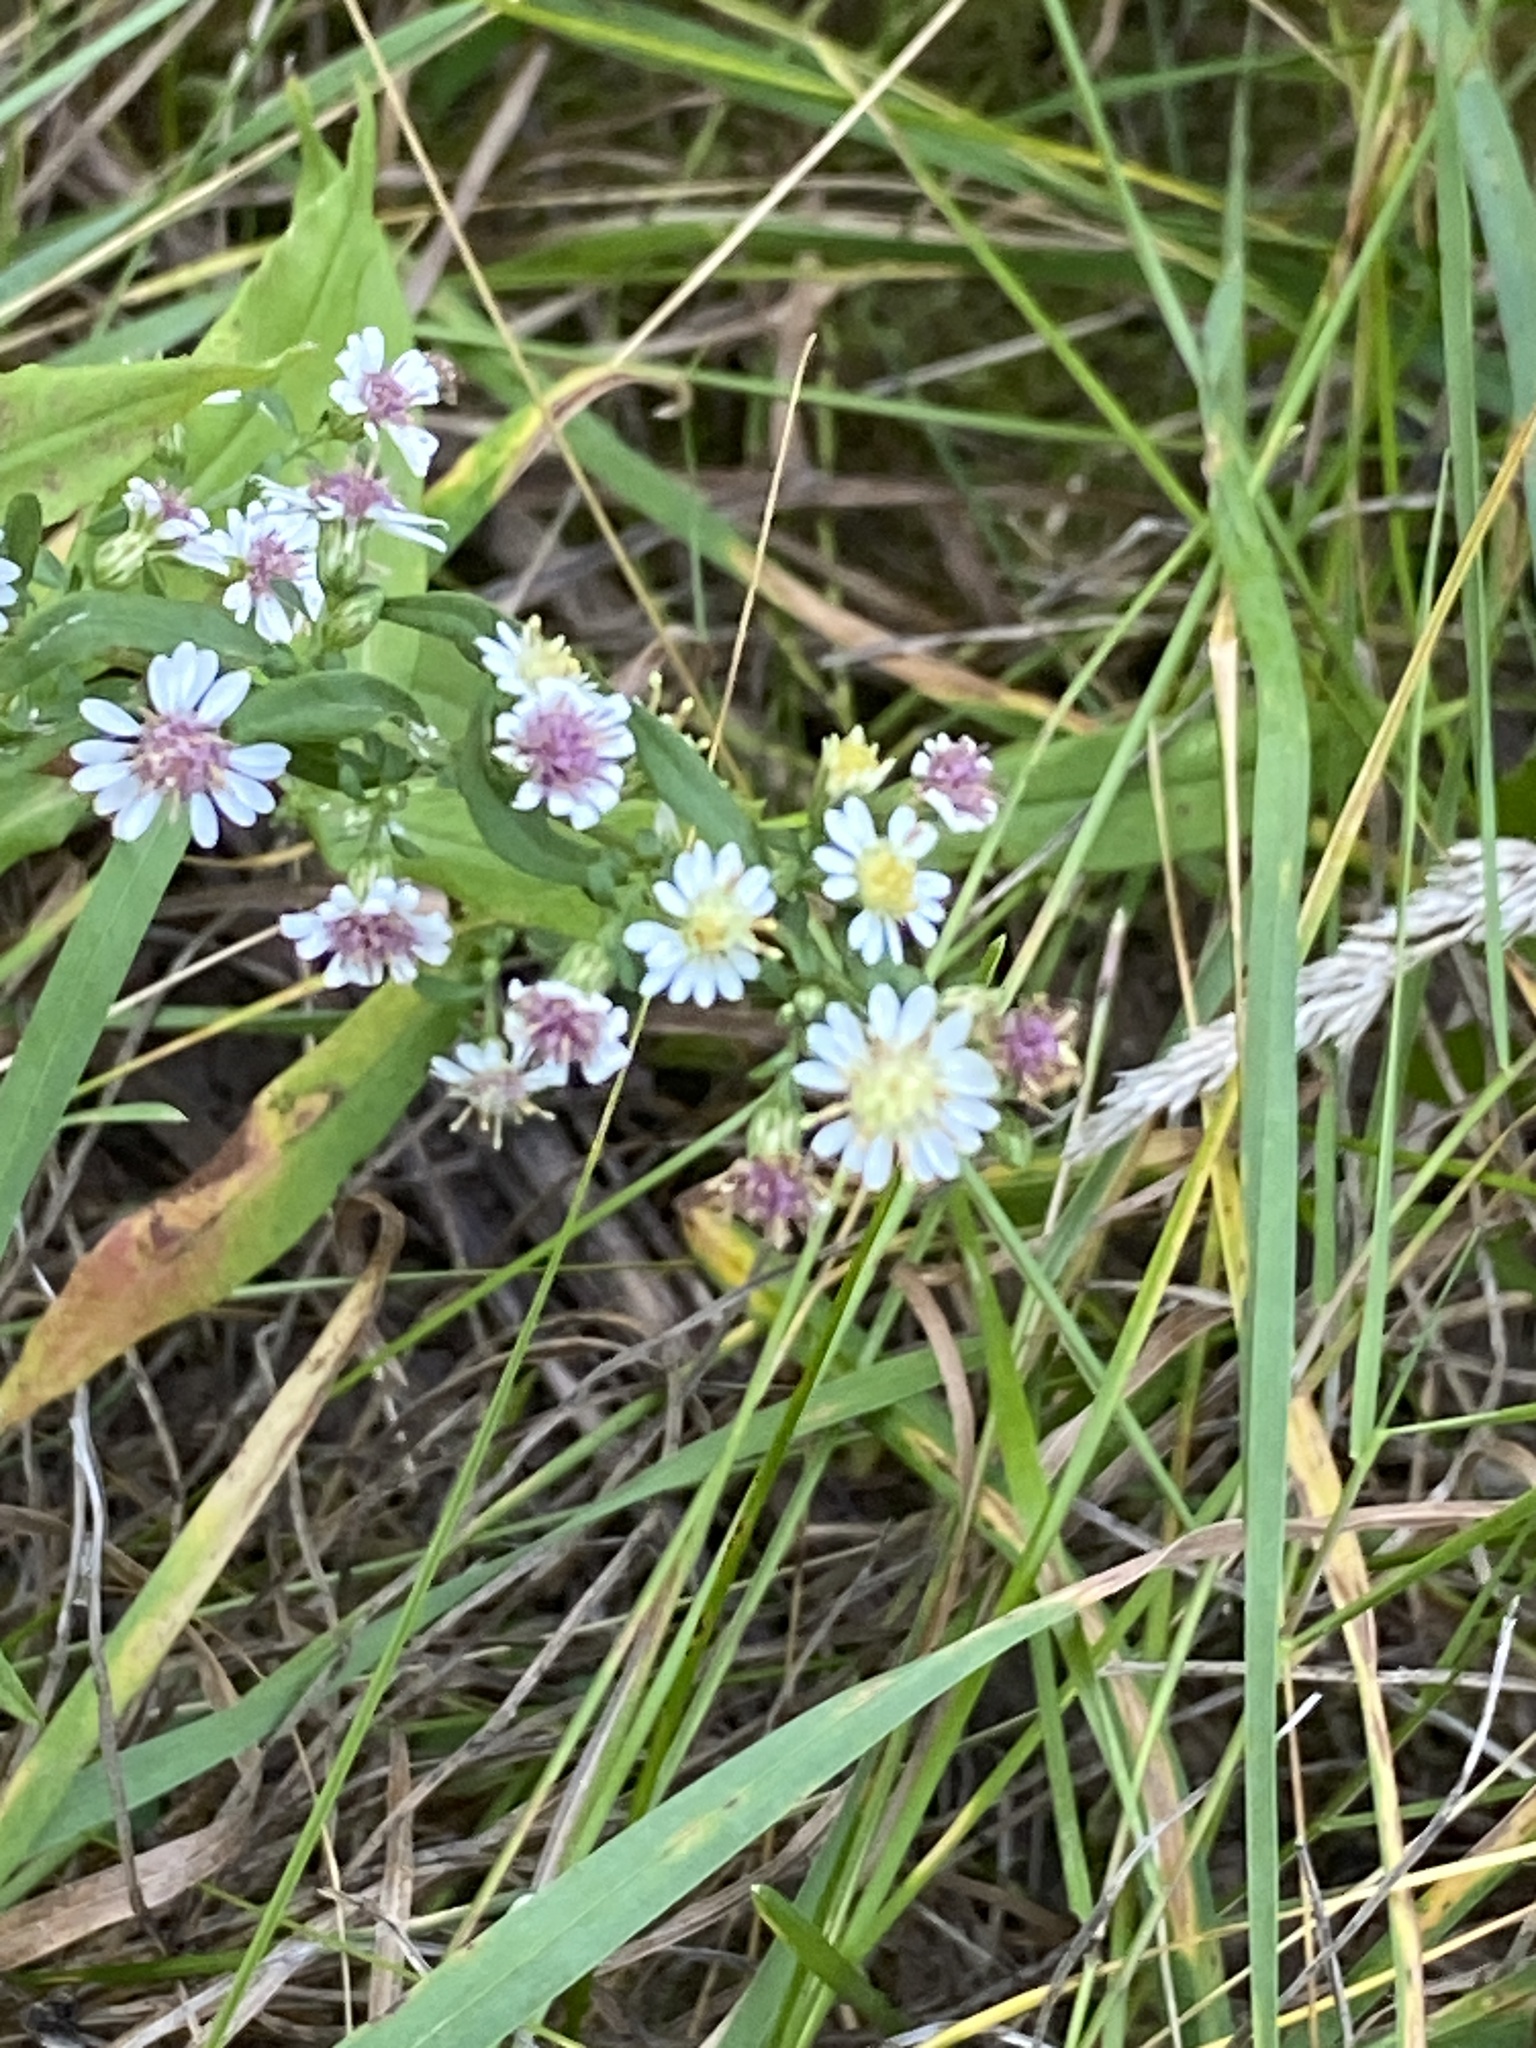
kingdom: Plantae
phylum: Tracheophyta
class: Magnoliopsida
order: Asterales
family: Asteraceae
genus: Symphyotrichum
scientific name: Symphyotrichum lateriflorum
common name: Calico aster
